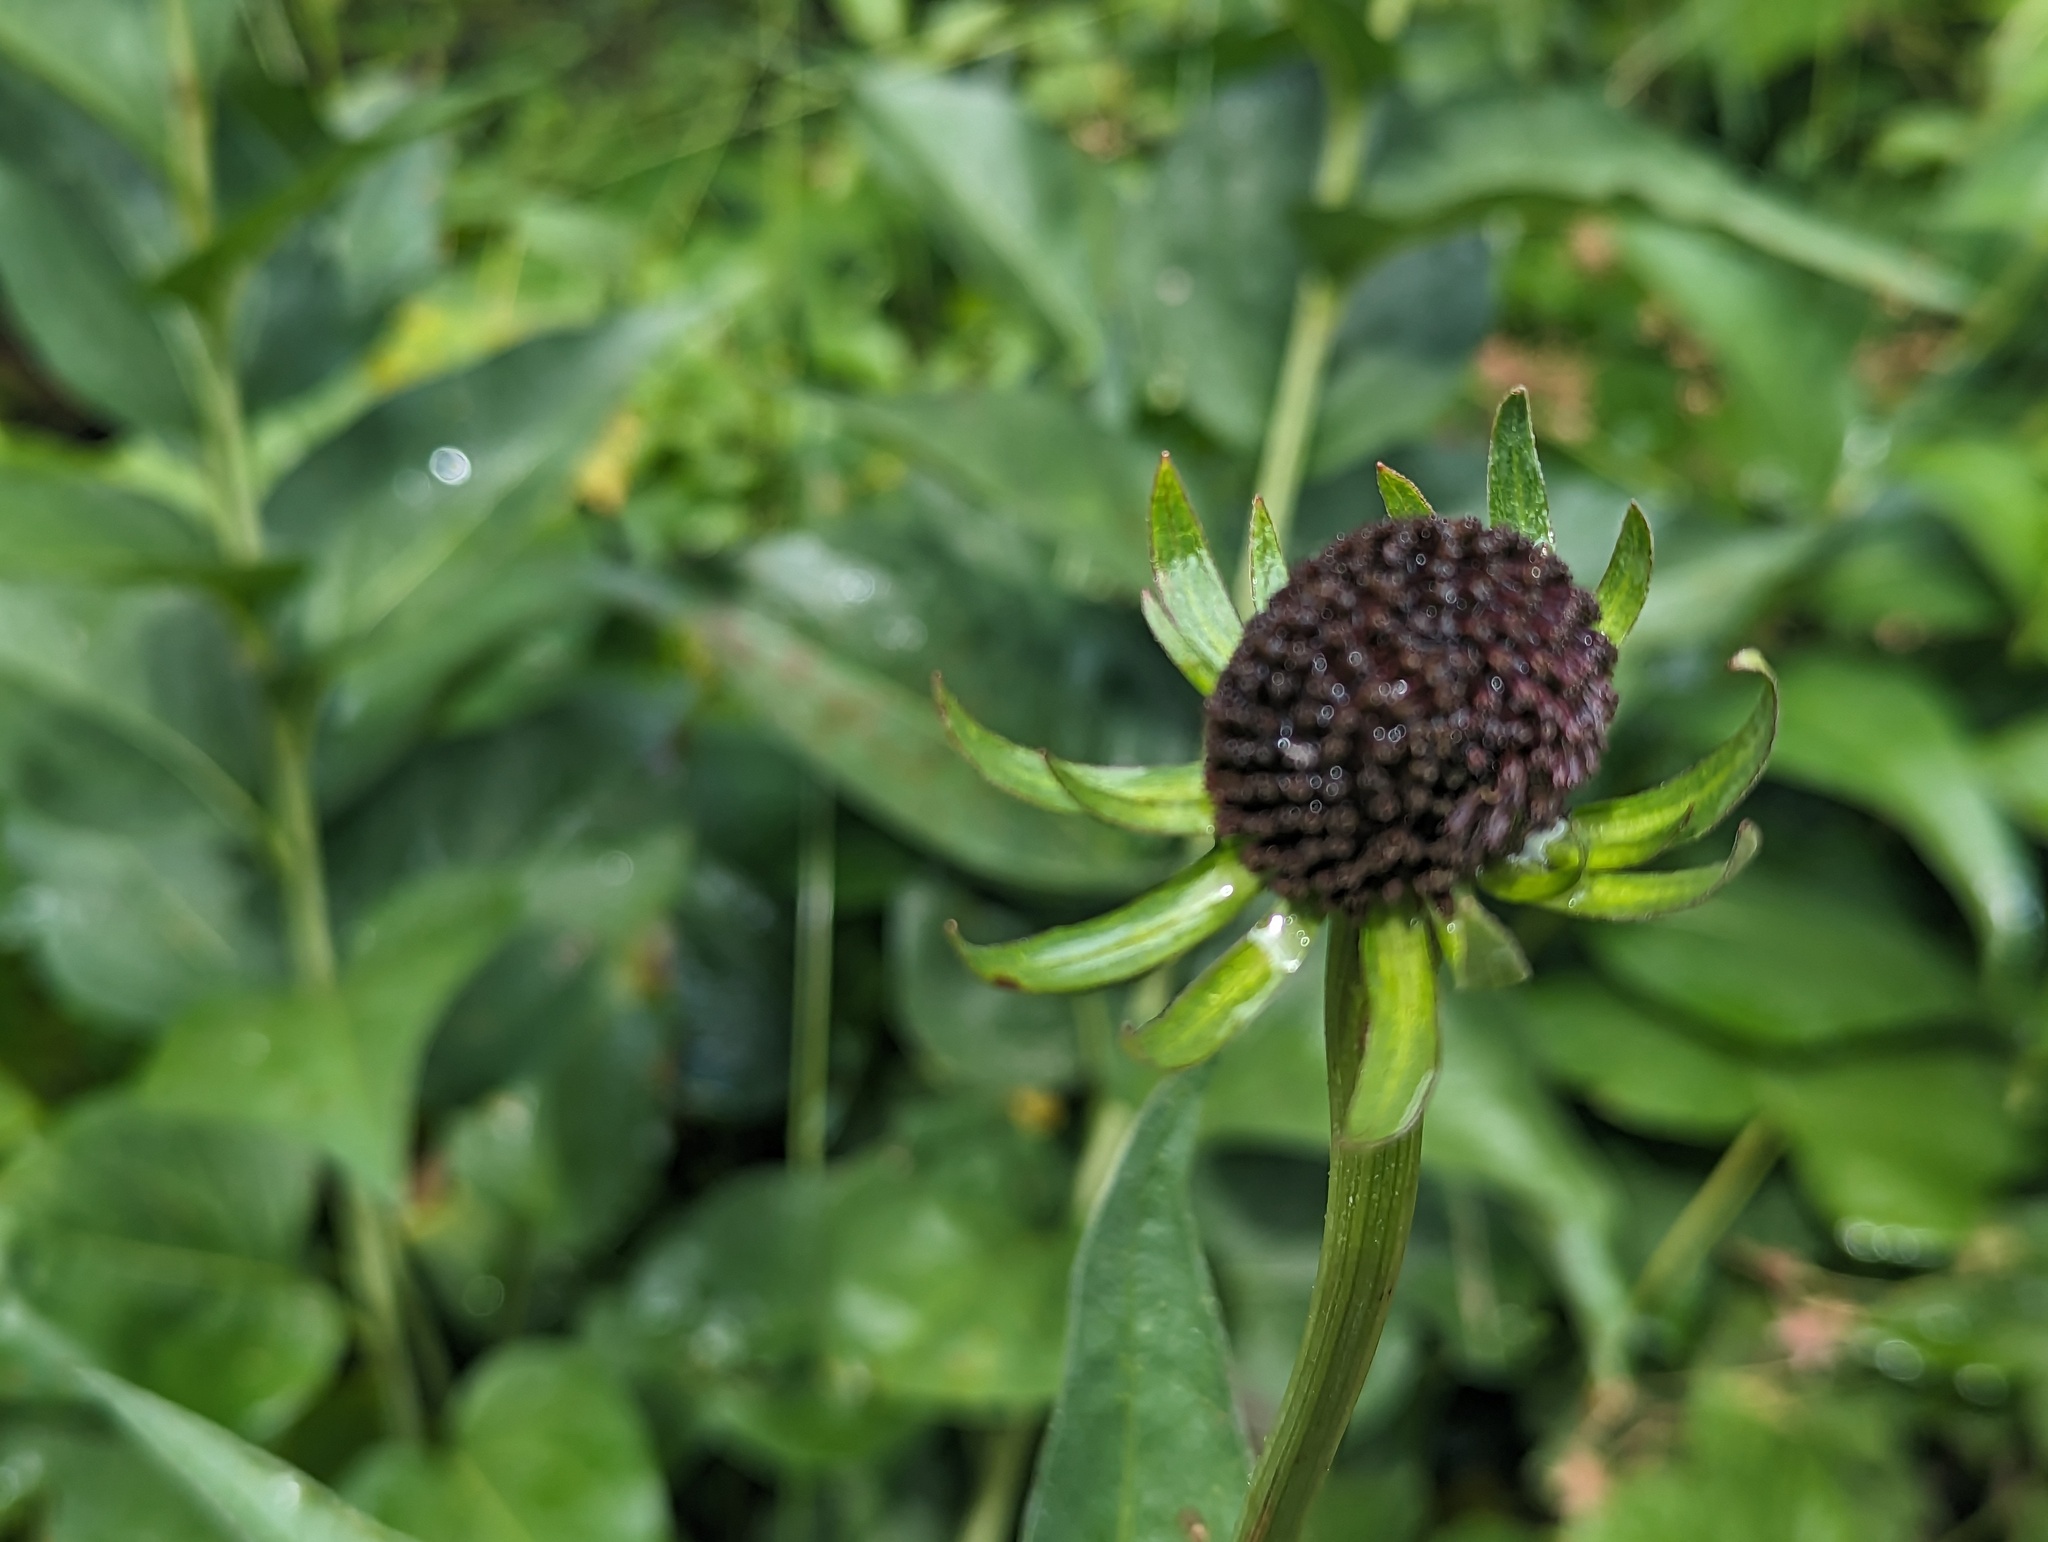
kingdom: Plantae
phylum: Tracheophyta
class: Magnoliopsida
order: Asterales
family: Asteraceae
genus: Rudbeckia
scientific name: Rudbeckia occidentalis
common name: Western coneflower
